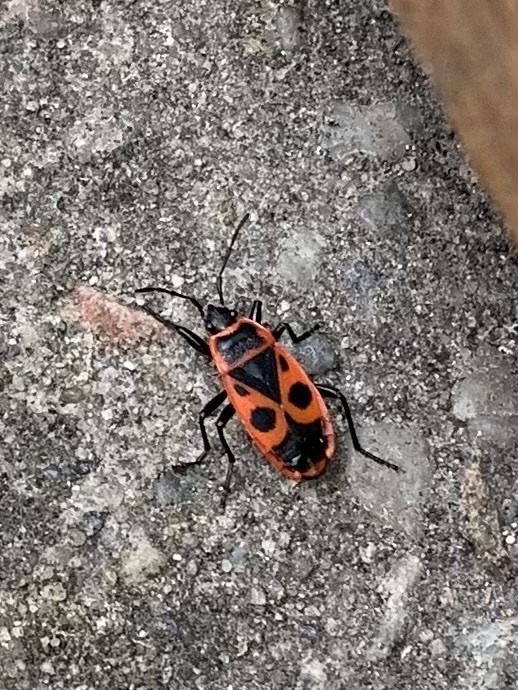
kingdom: Animalia
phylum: Arthropoda
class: Insecta
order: Hemiptera
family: Pyrrhocoridae
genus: Pyrrhocoris
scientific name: Pyrrhocoris apterus
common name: Firebug
